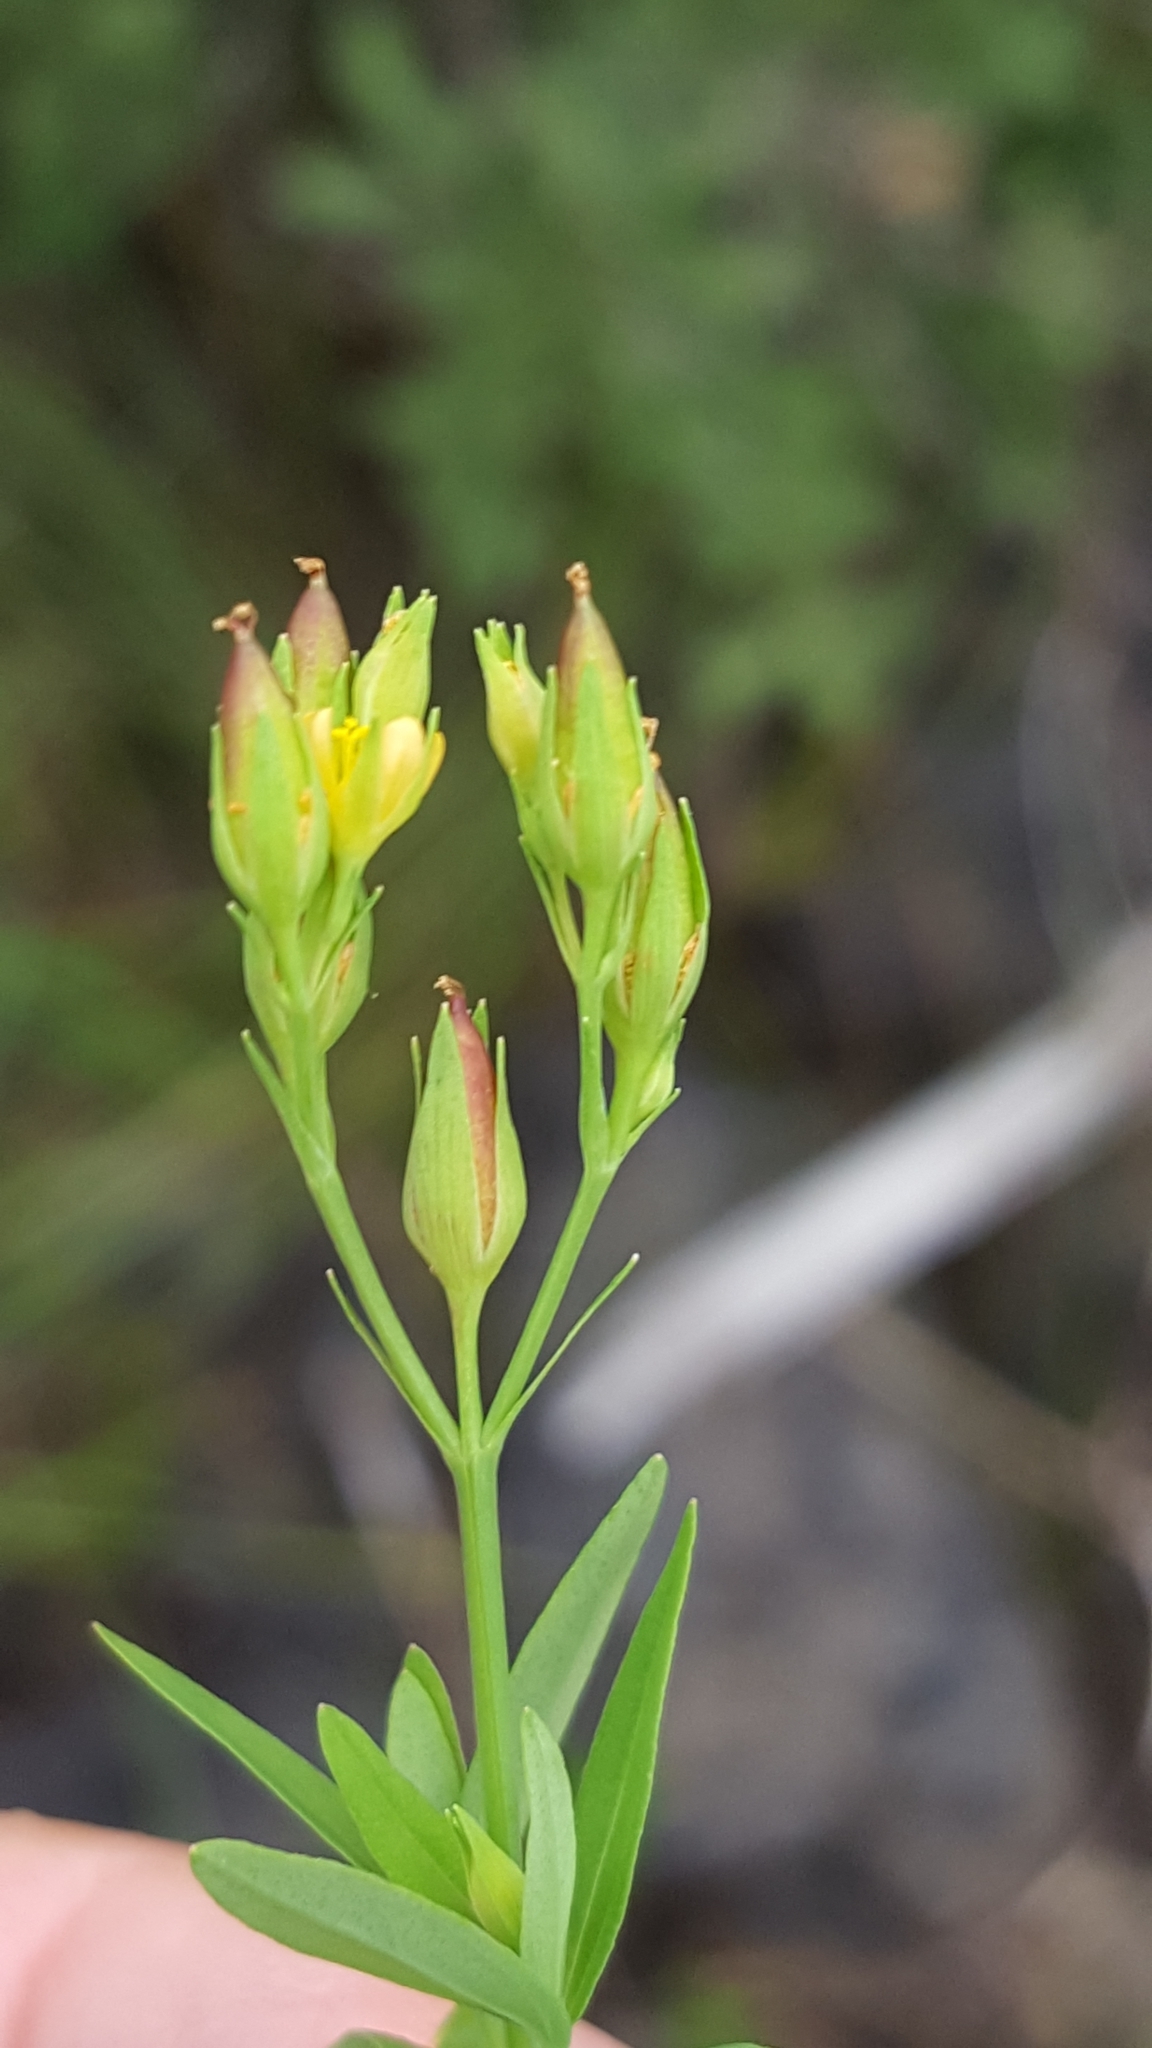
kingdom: Plantae
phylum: Tracheophyta
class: Magnoliopsida
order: Malpighiales
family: Hypericaceae
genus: Hypericum
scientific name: Hypericum majus
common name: Greater canadian st. john's-wort
